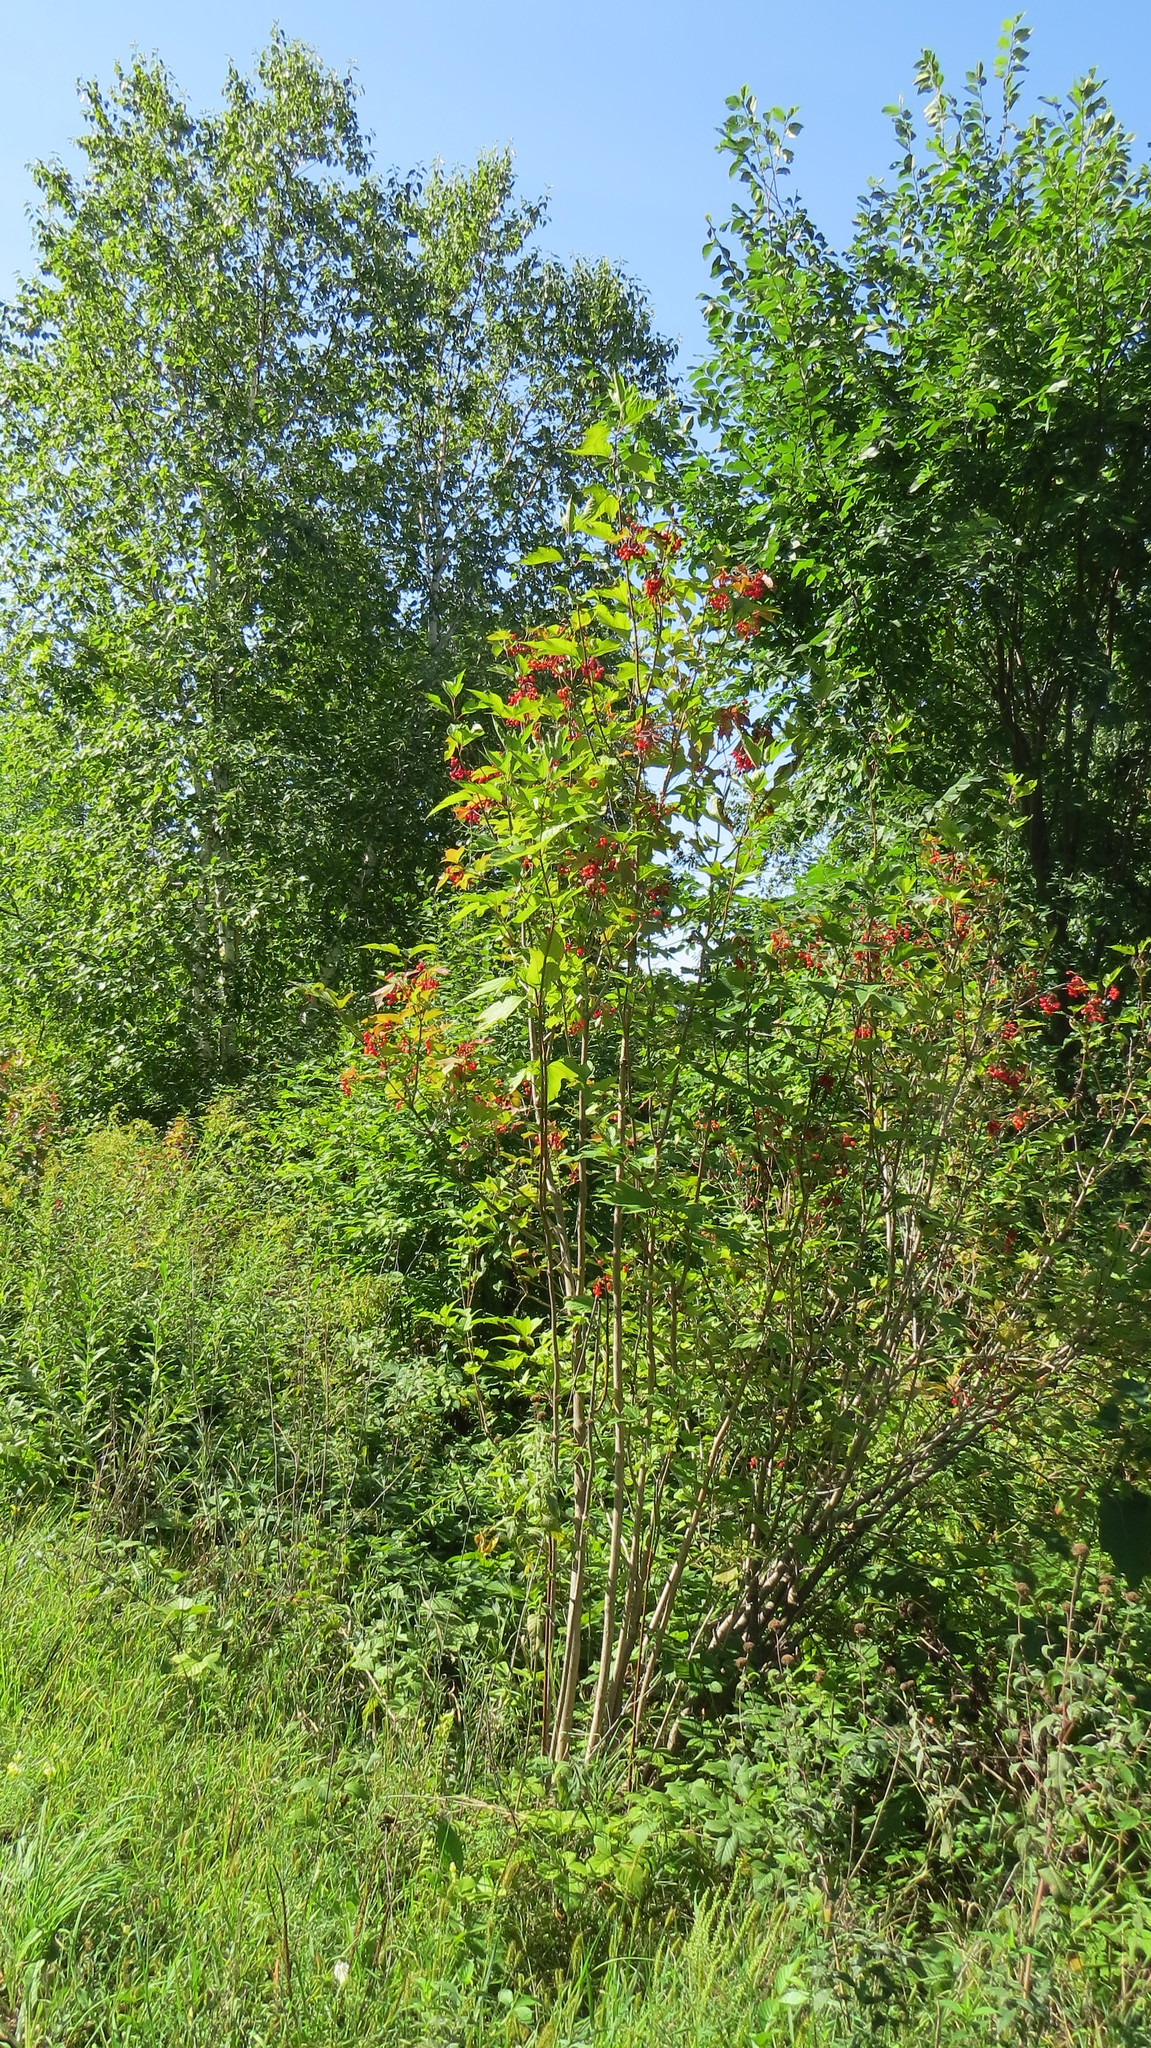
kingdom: Plantae
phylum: Tracheophyta
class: Magnoliopsida
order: Dipsacales
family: Viburnaceae
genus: Viburnum
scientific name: Viburnum opulus
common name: Guelder-rose
